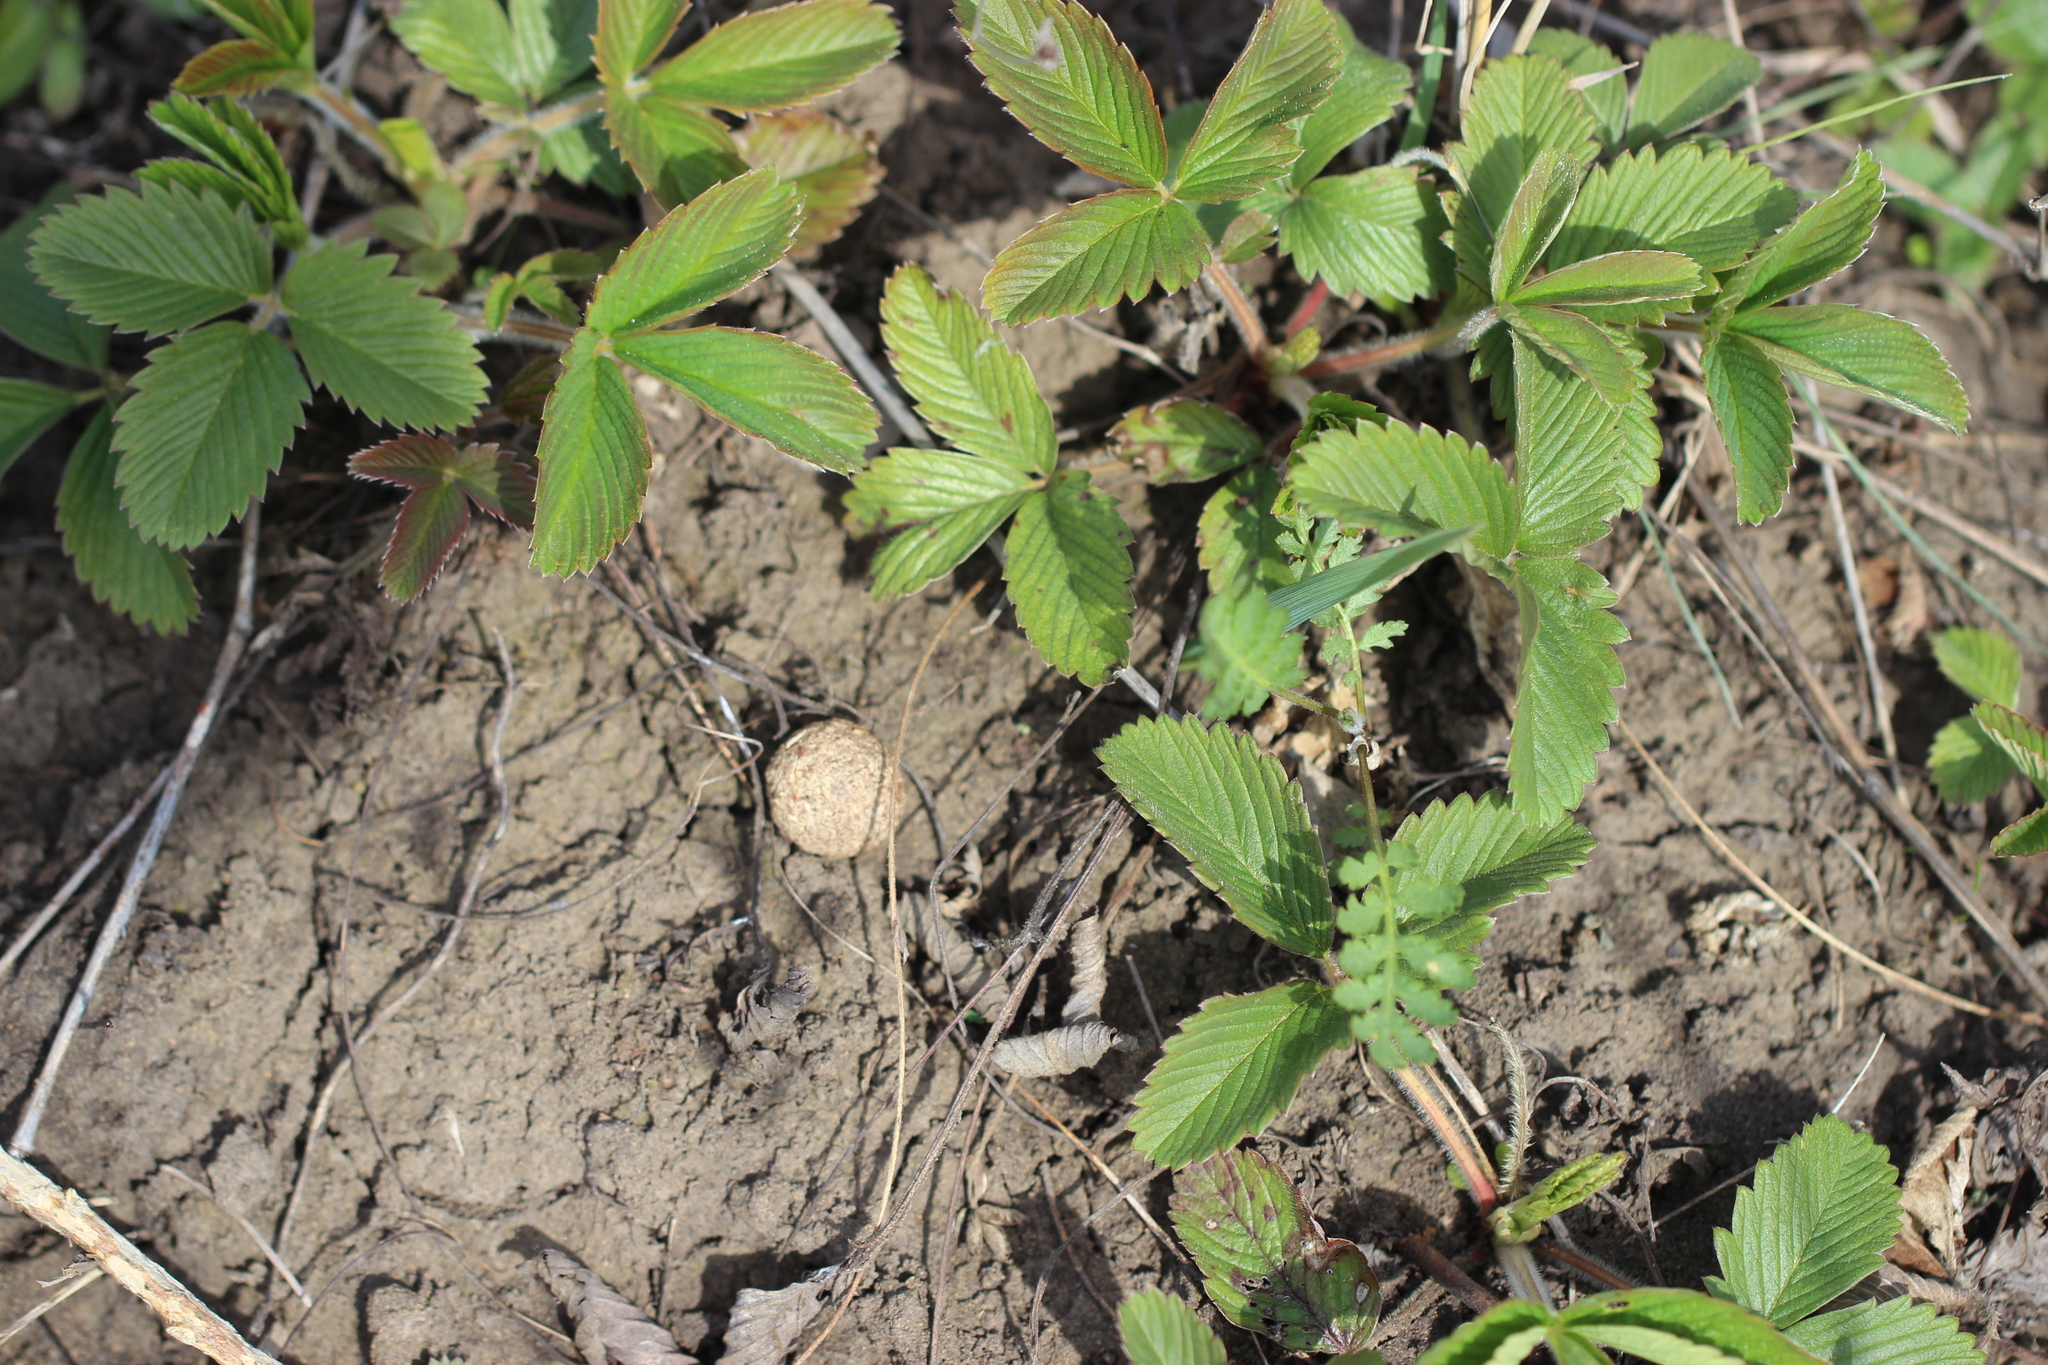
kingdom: Plantae
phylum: Tracheophyta
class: Magnoliopsida
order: Rosales
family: Rosaceae
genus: Fragaria
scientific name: Fragaria viridis
